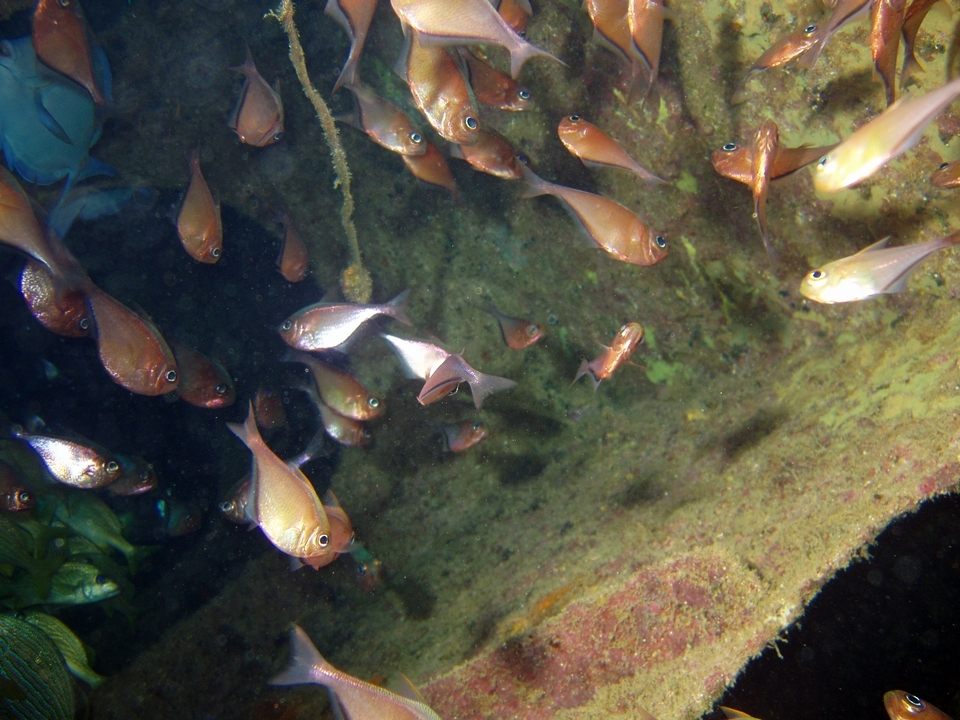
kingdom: Animalia
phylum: Chordata
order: Perciformes
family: Pempheridae
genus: Pempheris
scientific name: Pempheris schomburgkii
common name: Glassy sweeper
